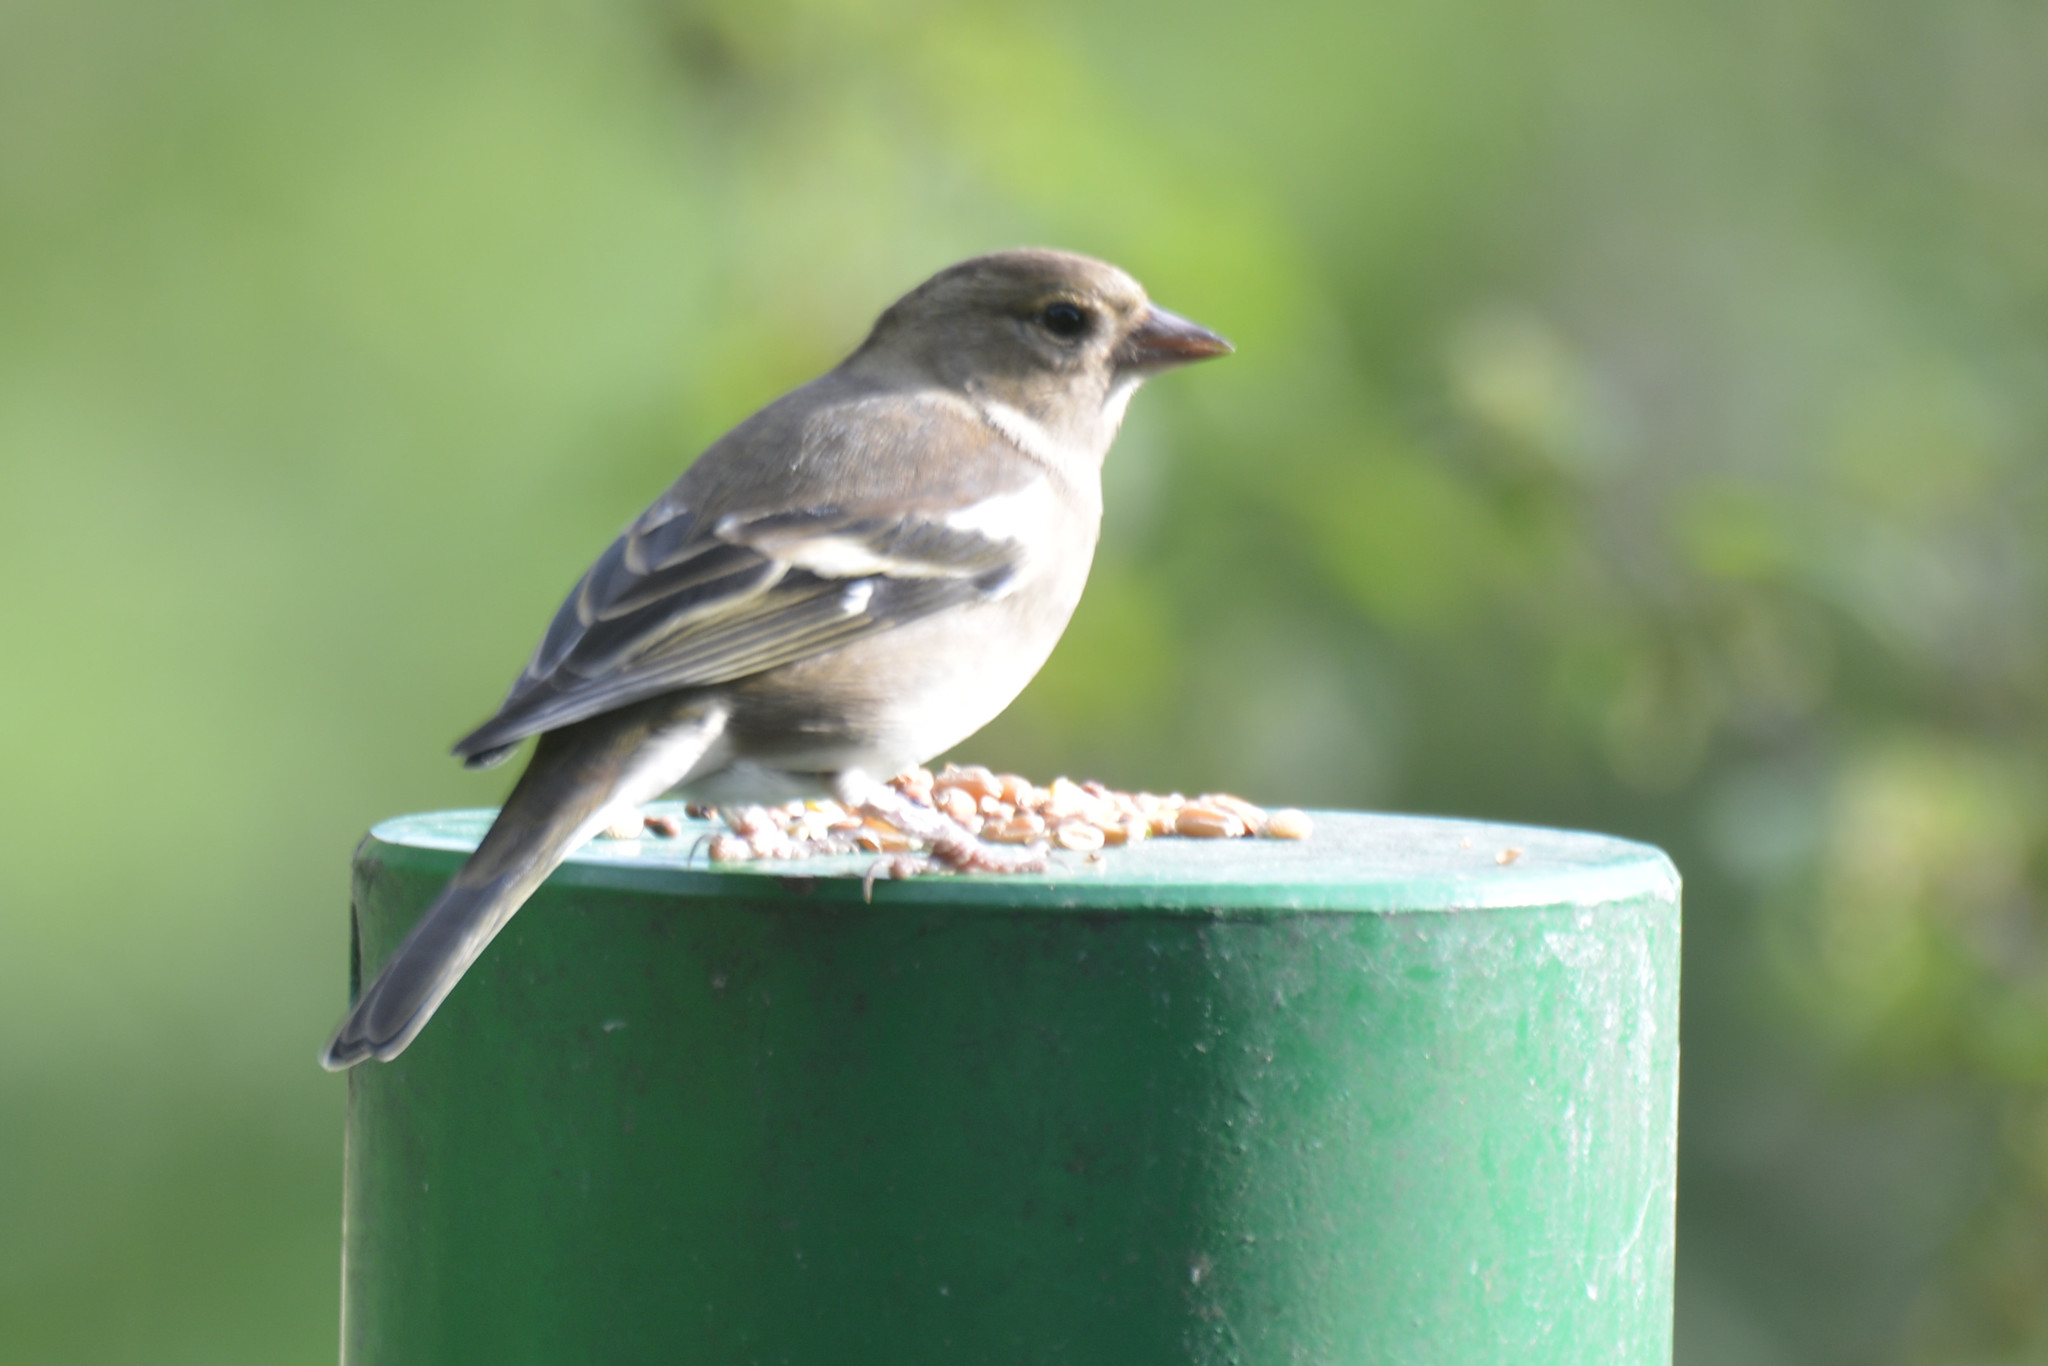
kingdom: Animalia
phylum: Chordata
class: Aves
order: Passeriformes
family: Fringillidae
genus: Fringilla
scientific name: Fringilla coelebs
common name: Common chaffinch
